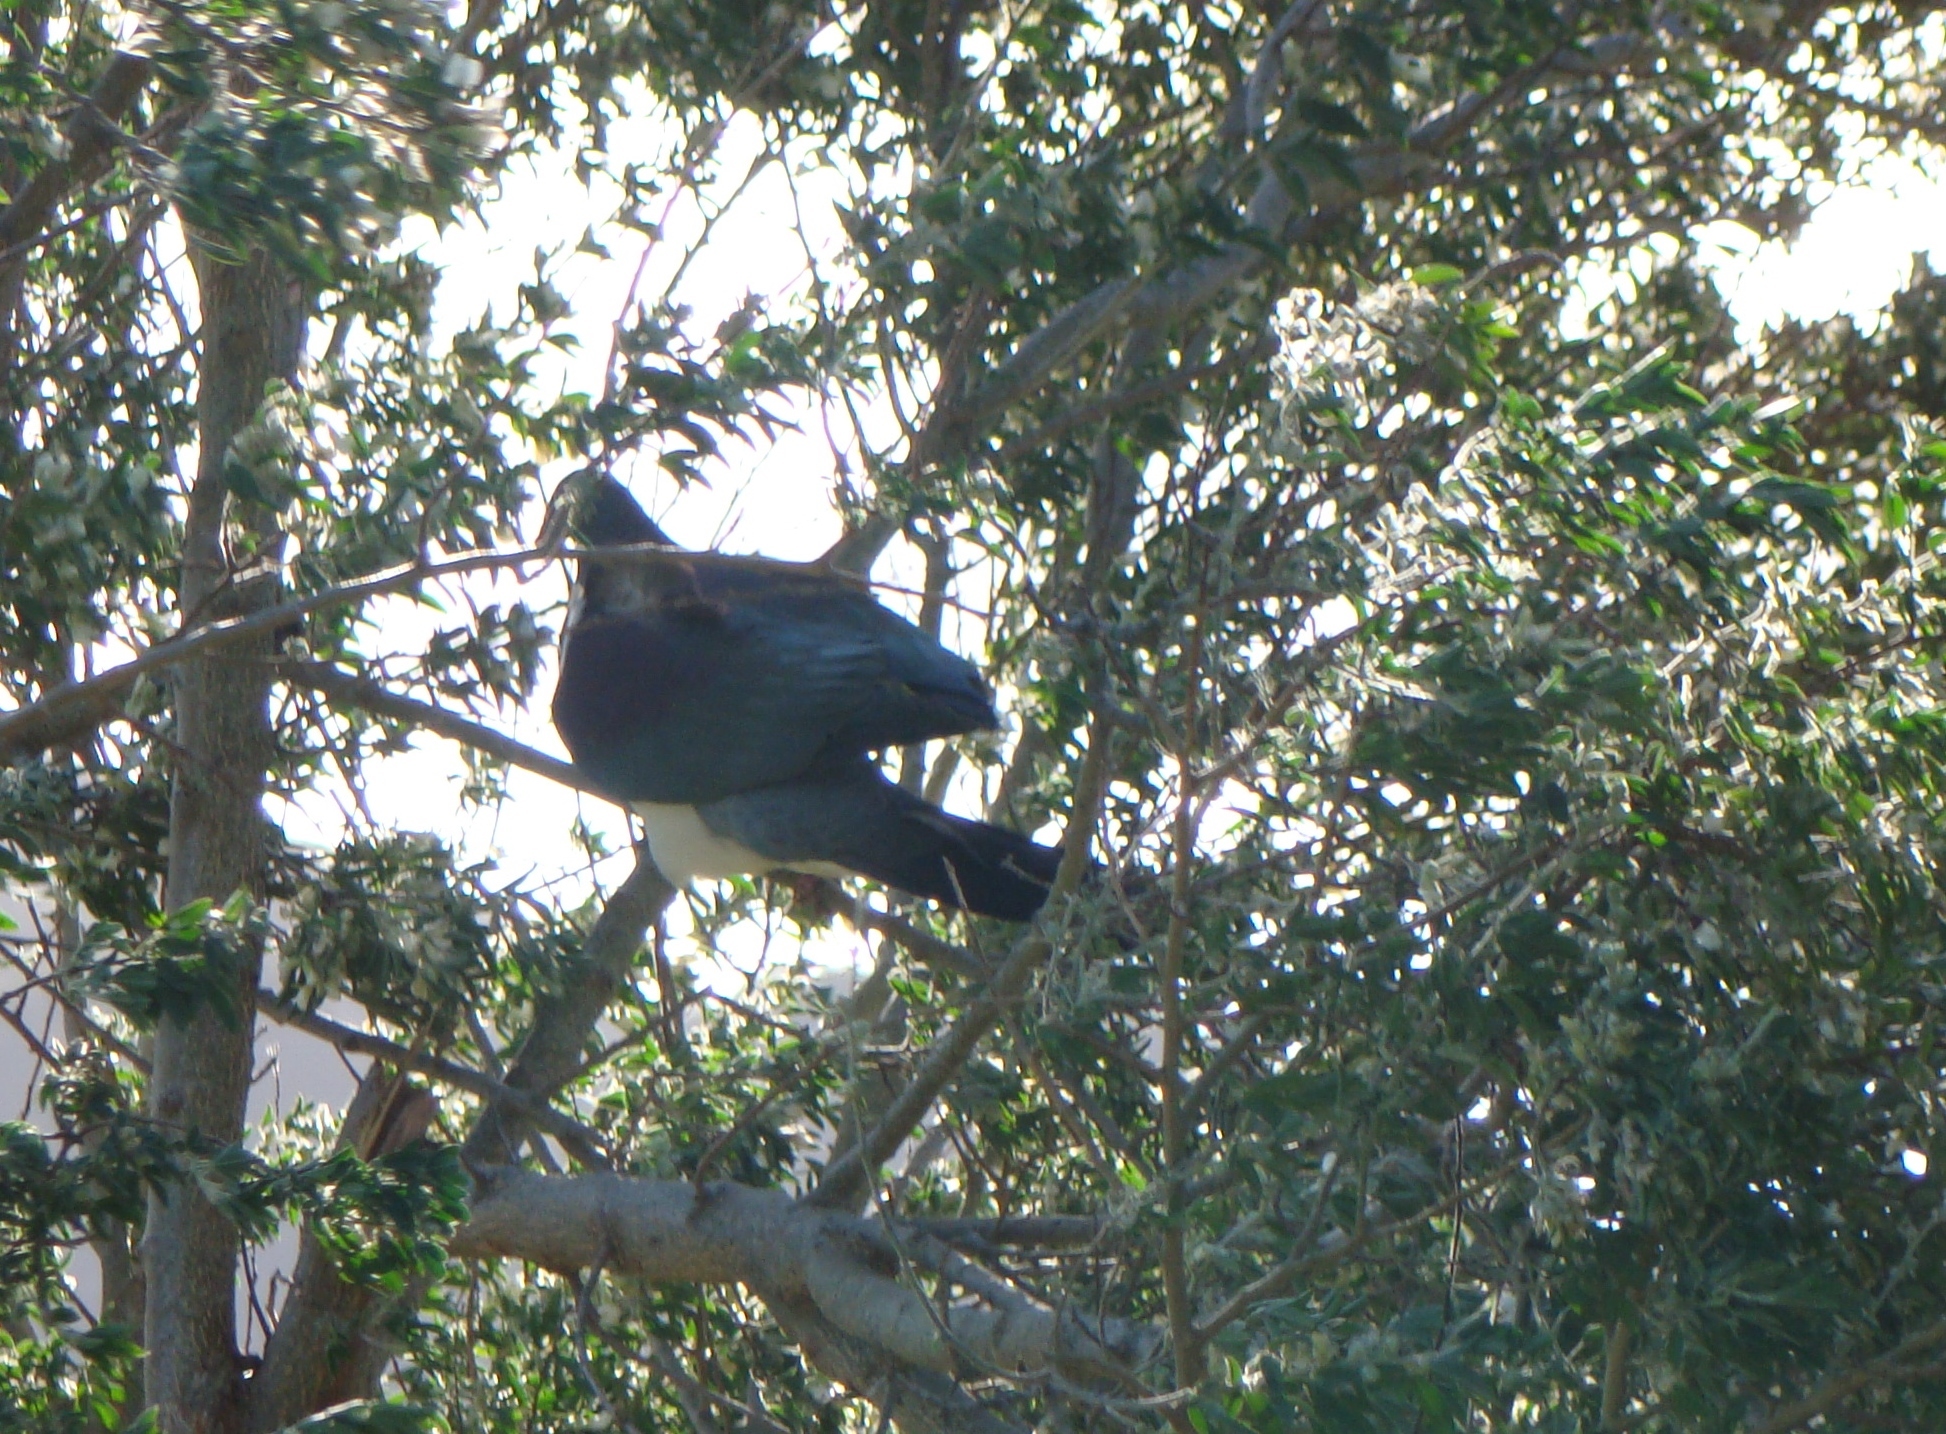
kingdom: Animalia
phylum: Chordata
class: Aves
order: Columbiformes
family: Columbidae
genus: Hemiphaga
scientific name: Hemiphaga novaeseelandiae
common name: New zealand pigeon
